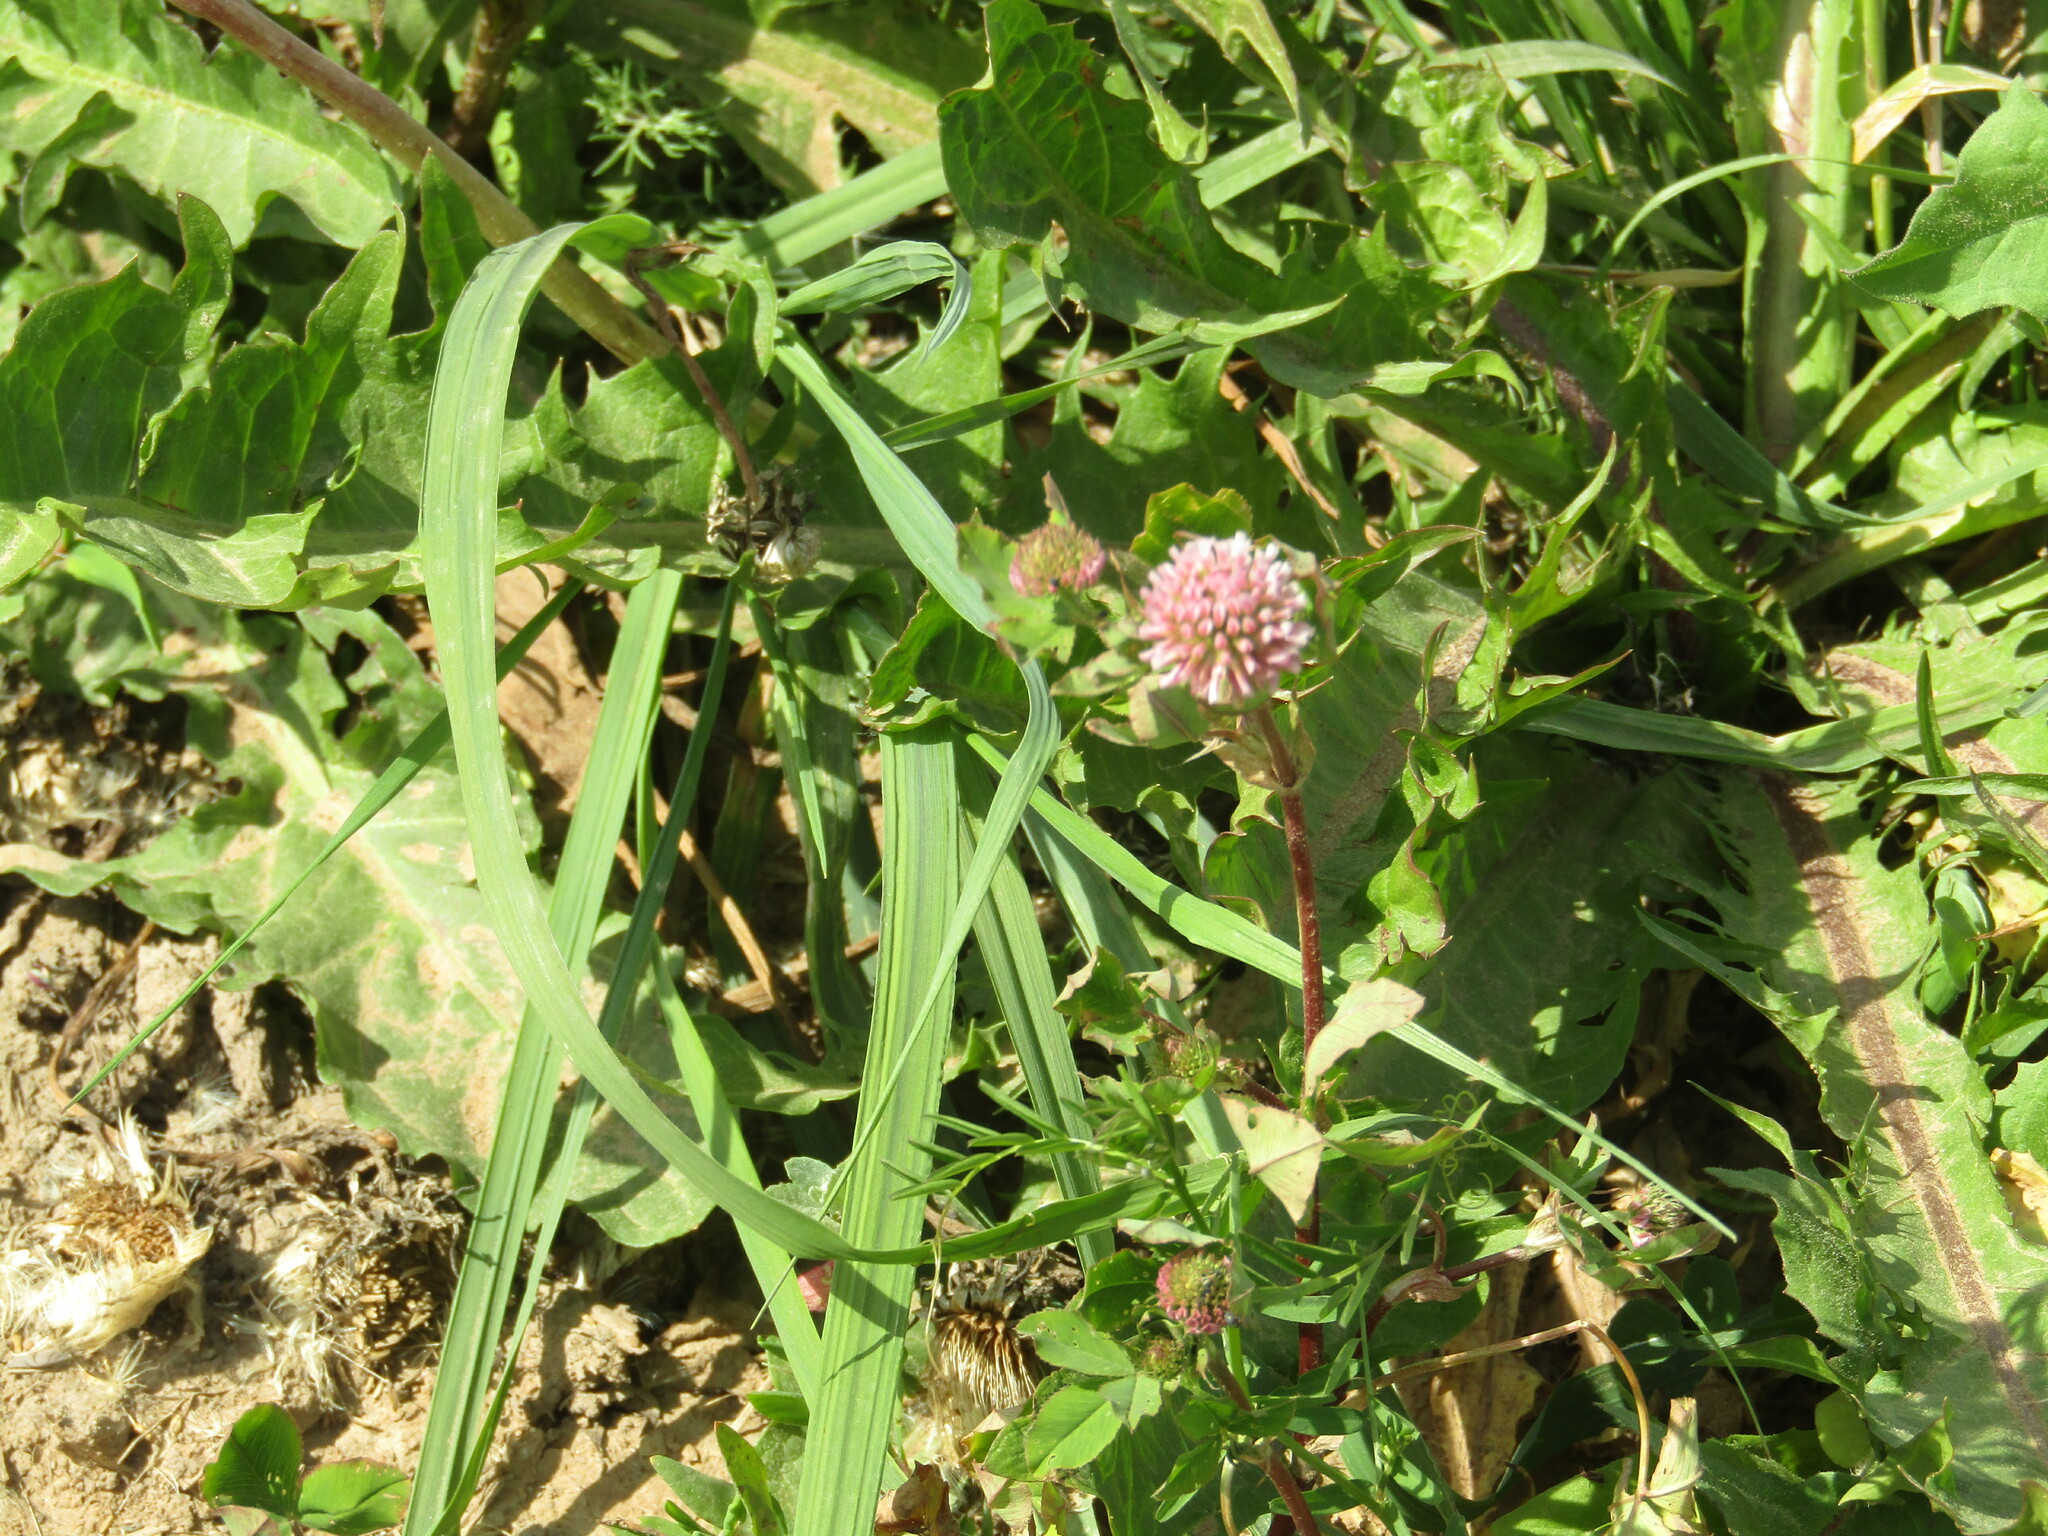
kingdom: Plantae
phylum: Tracheophyta
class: Magnoliopsida
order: Fabales
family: Fabaceae
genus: Trifolium
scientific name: Trifolium hybridum
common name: Alsike clover
